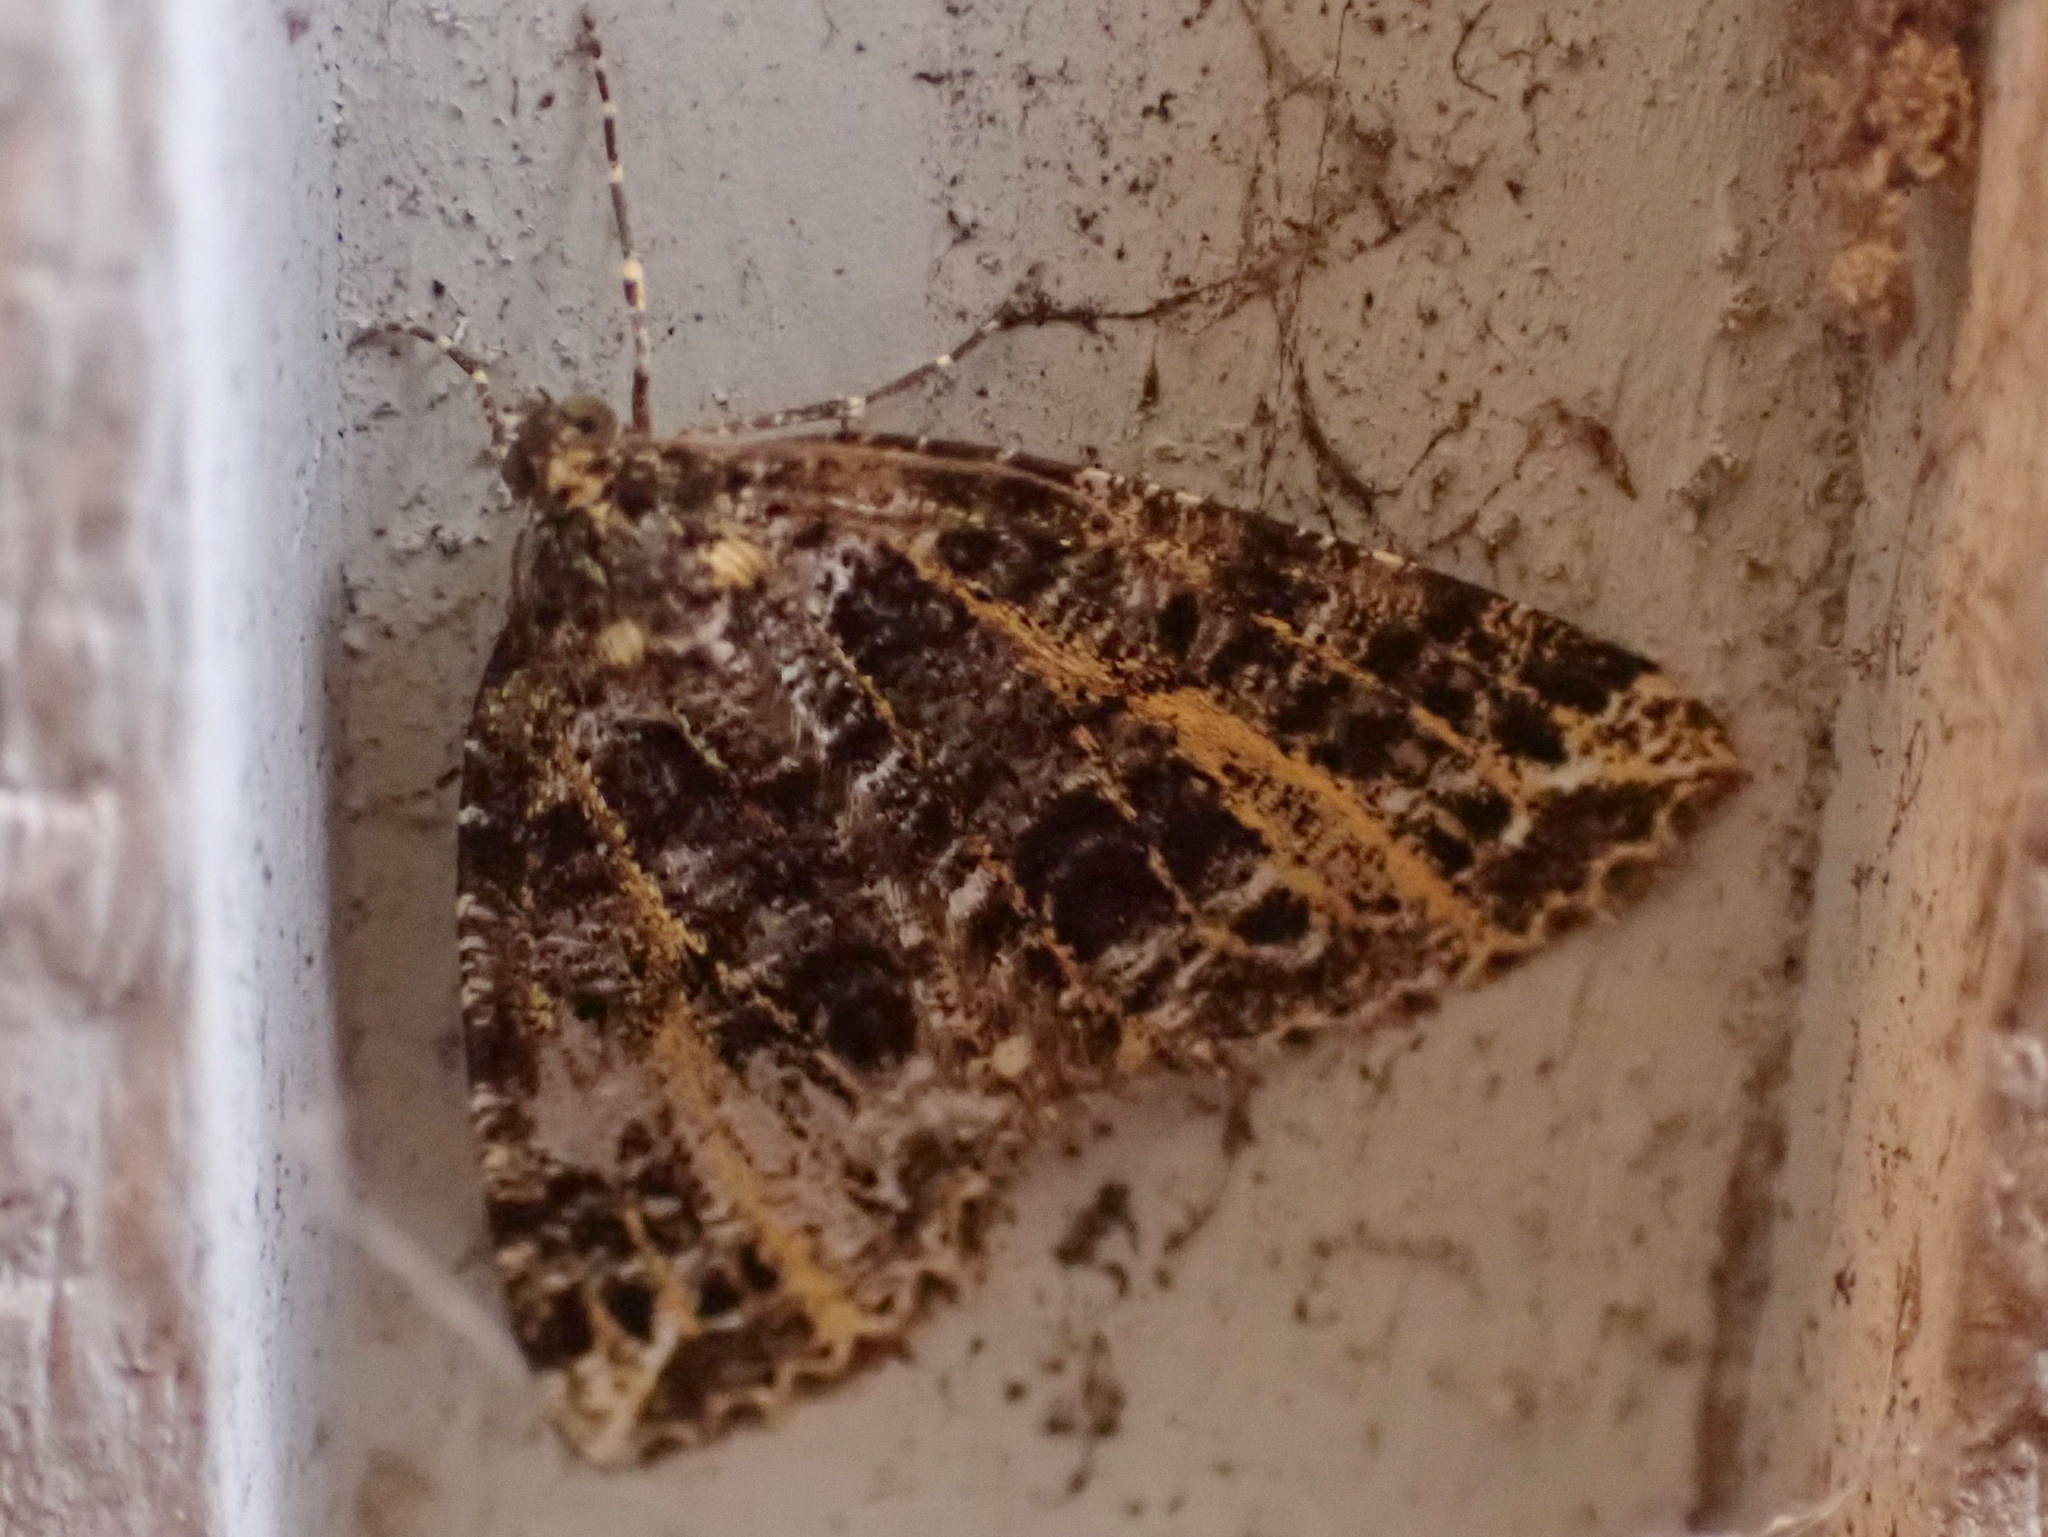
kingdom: Animalia
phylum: Arthropoda
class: Insecta
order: Lepidoptera
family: Geometridae
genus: Orthofidonia
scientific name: Orthofidonia flavivenata
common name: Yellow-veined geometer moth
